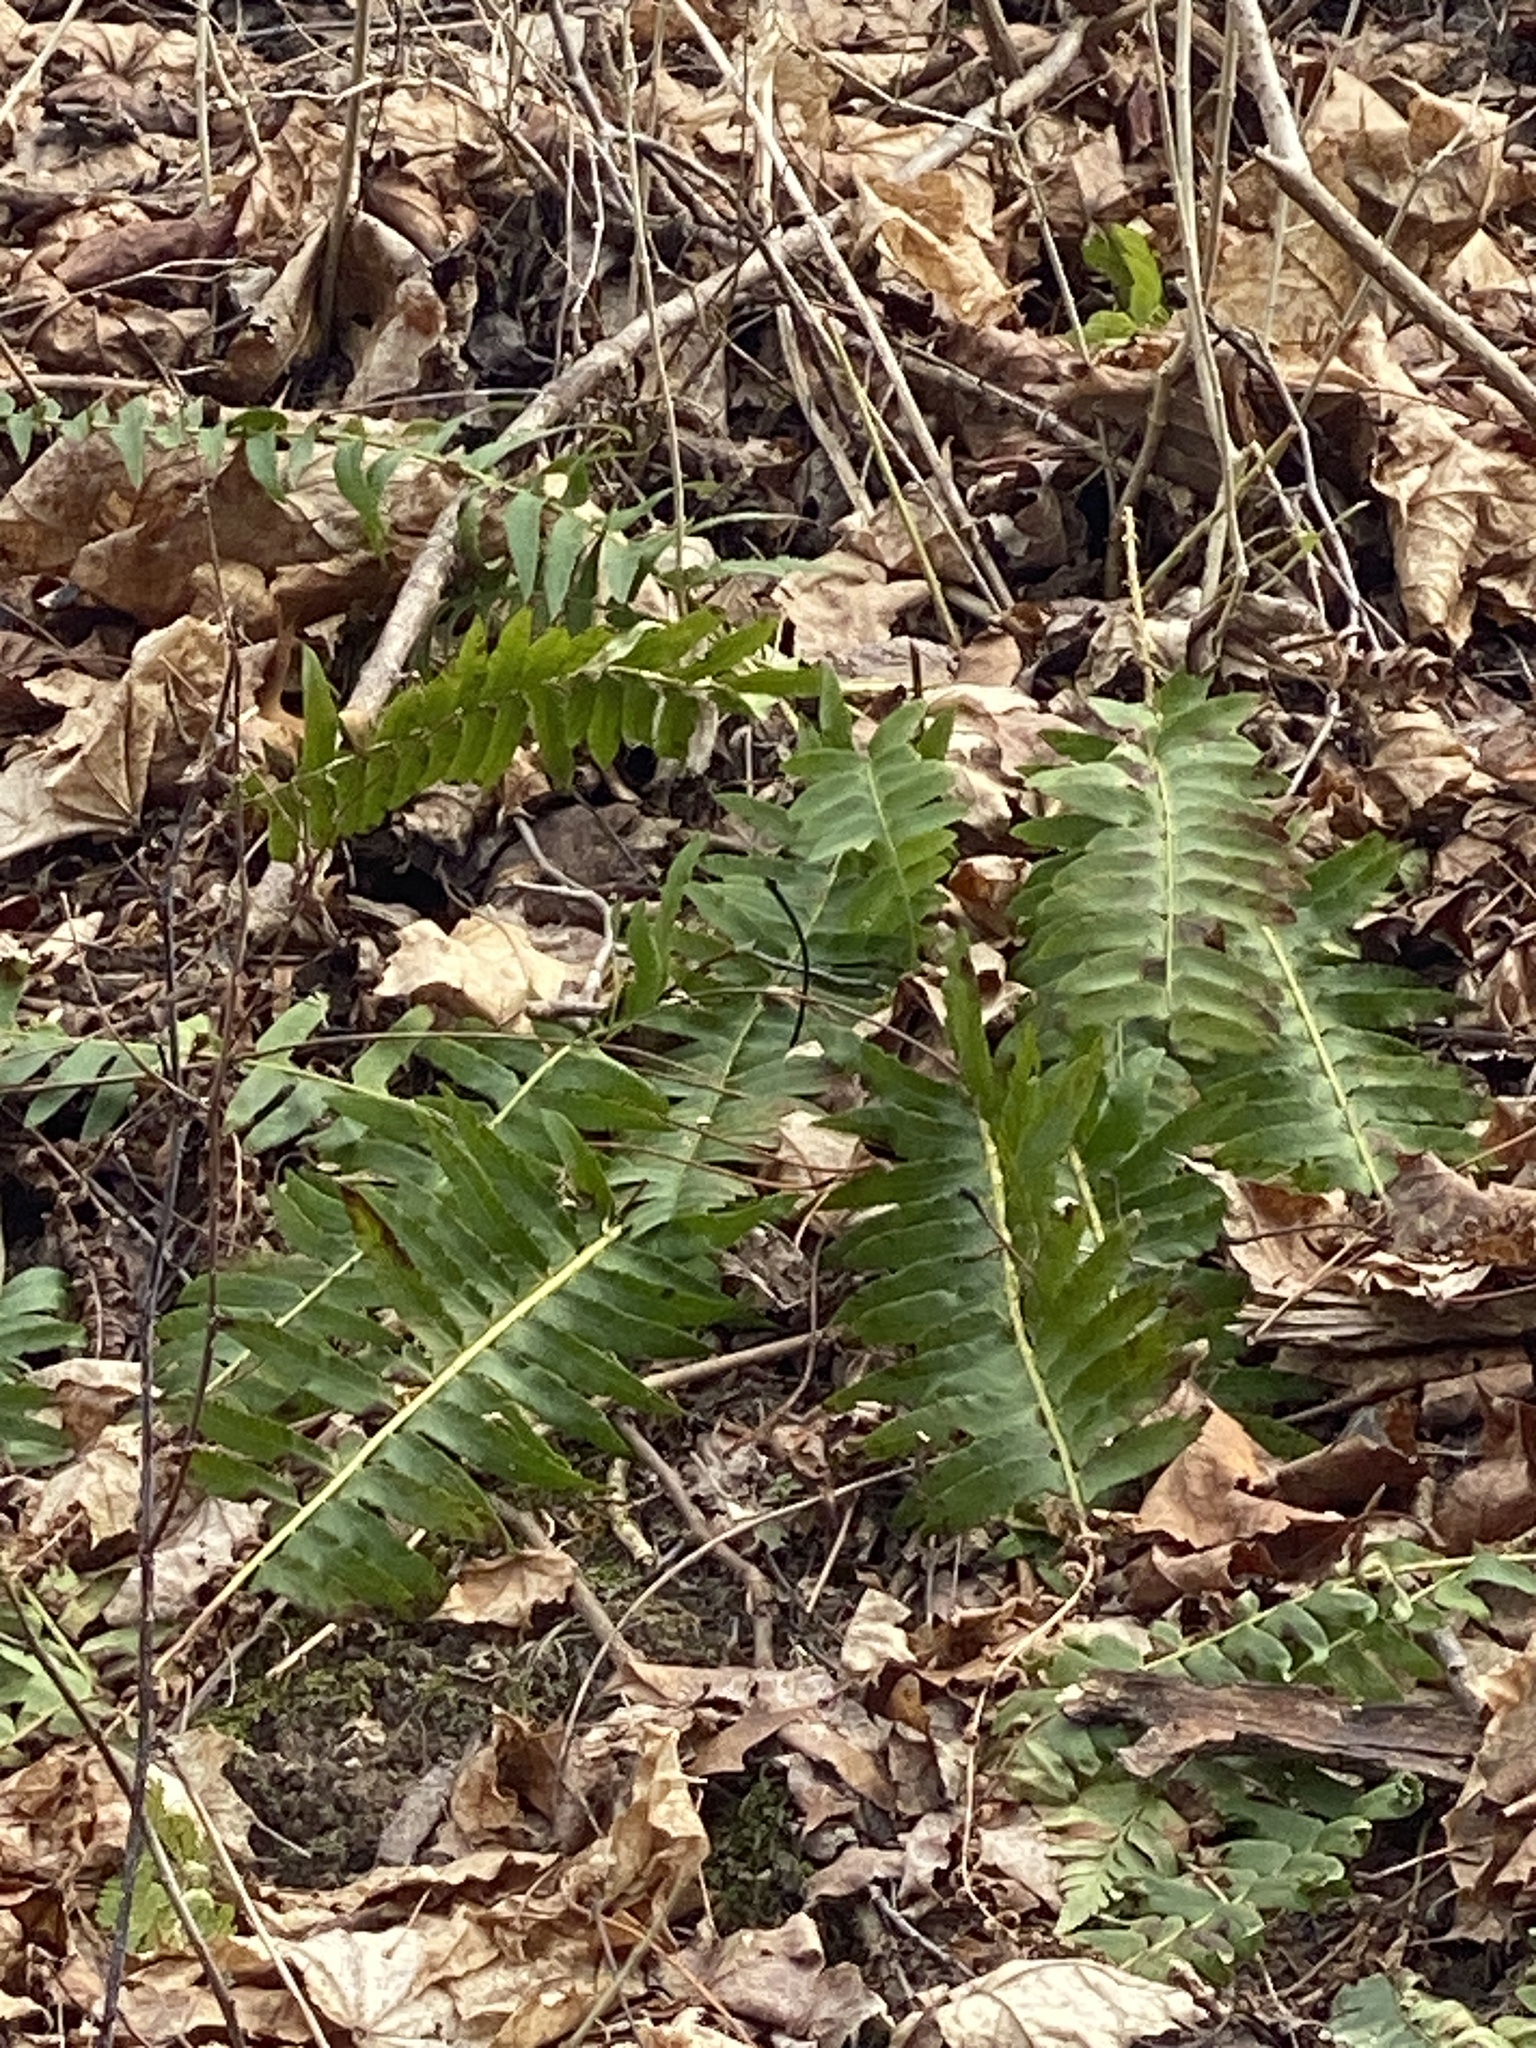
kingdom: Plantae
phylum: Tracheophyta
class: Polypodiopsida
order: Polypodiales
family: Dryopteridaceae
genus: Polystichum
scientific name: Polystichum acrostichoides
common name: Christmas fern
